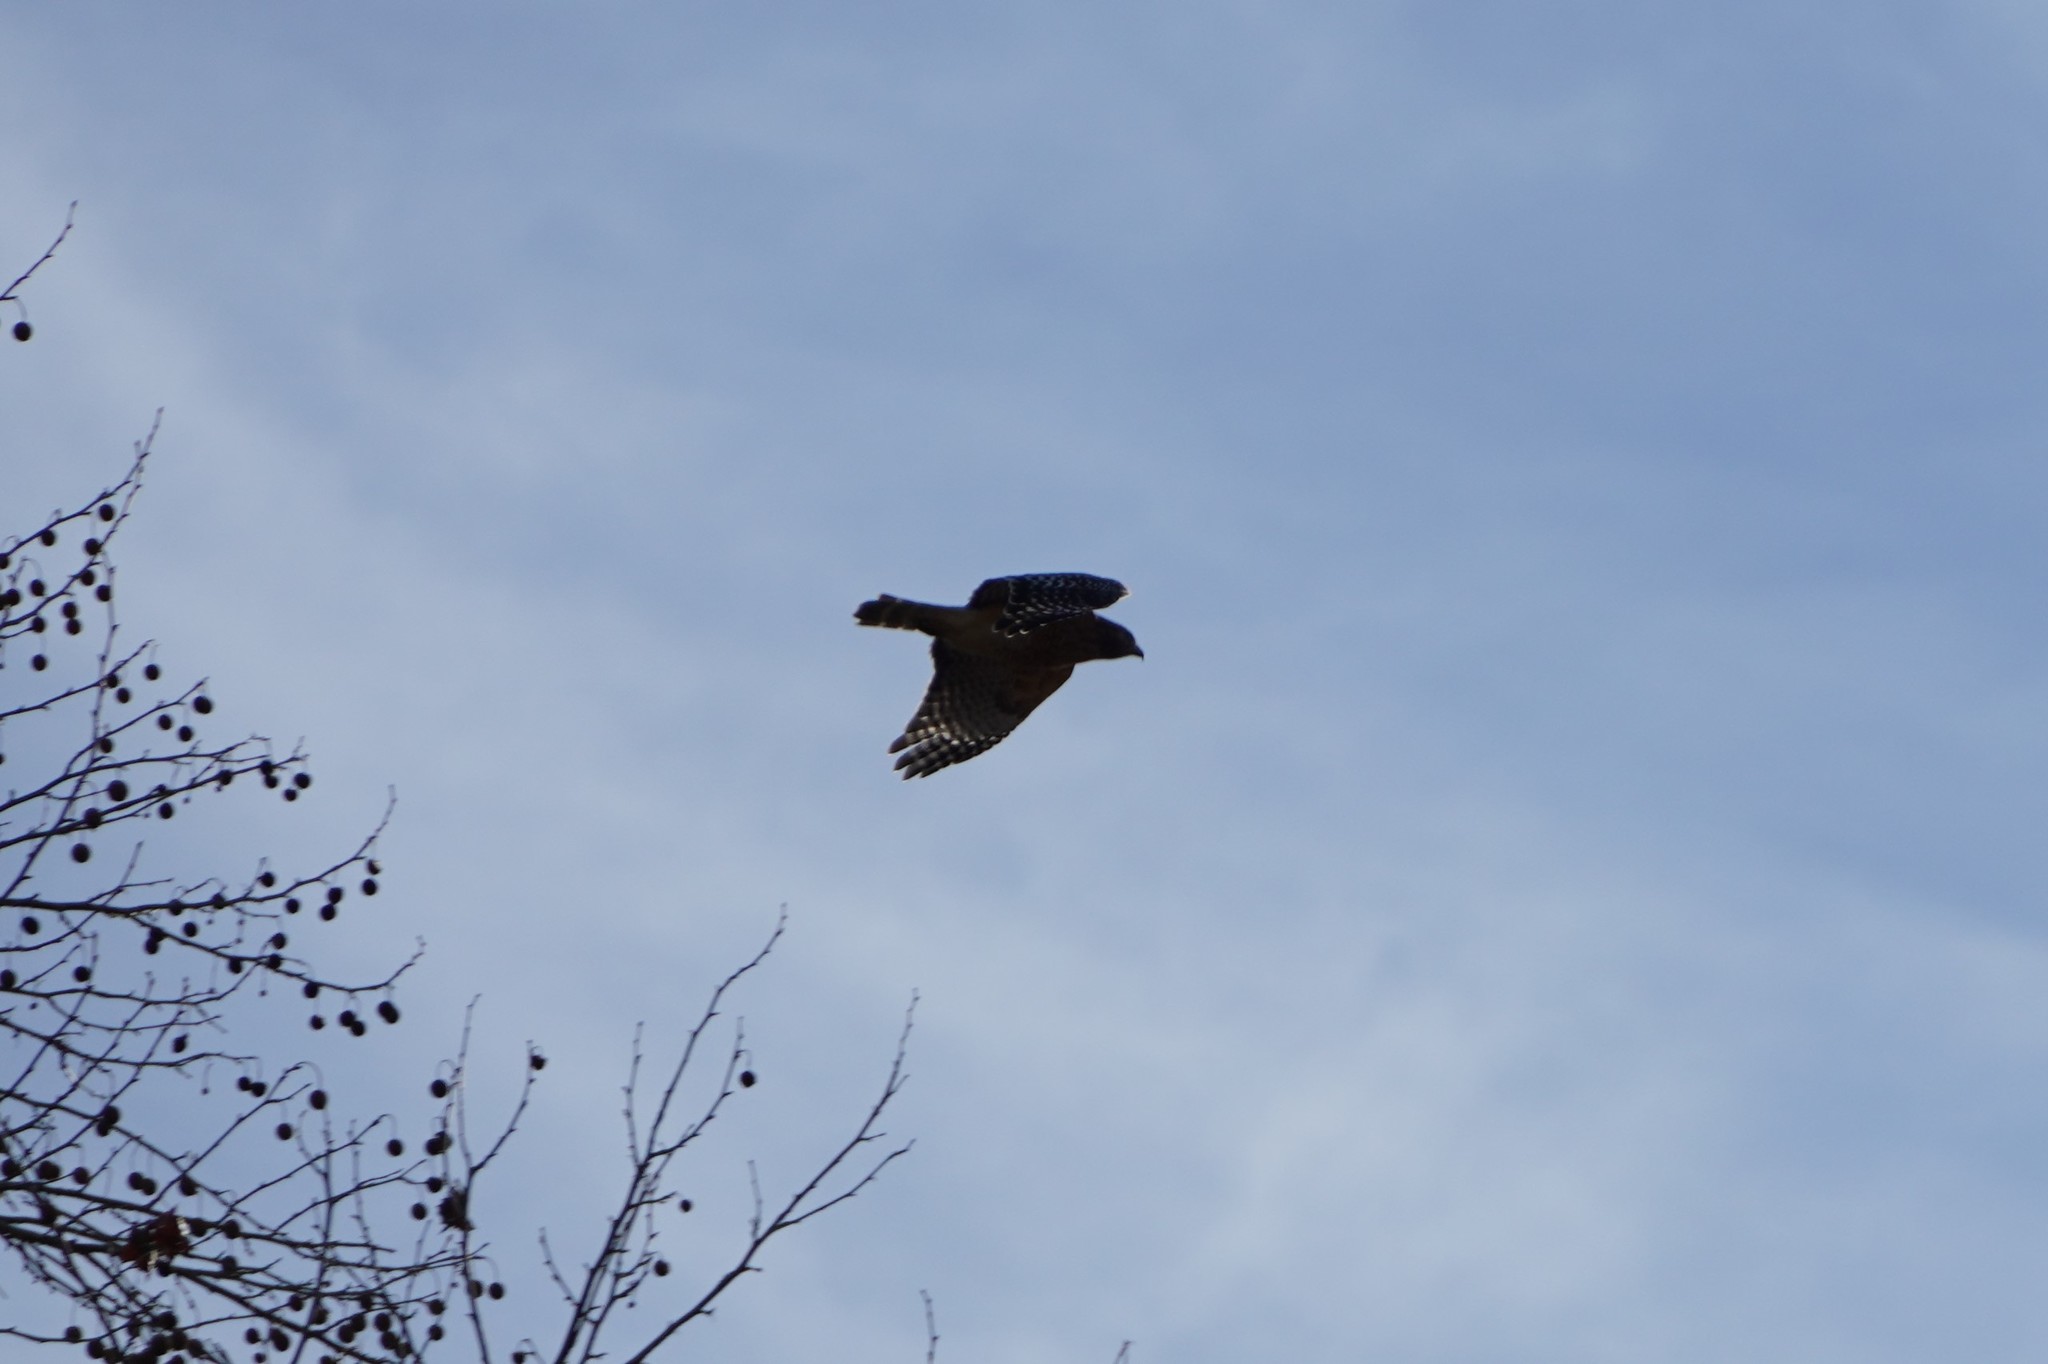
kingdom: Animalia
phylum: Chordata
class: Aves
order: Accipitriformes
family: Accipitridae
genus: Buteo
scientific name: Buteo lineatus
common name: Red-shouldered hawk
